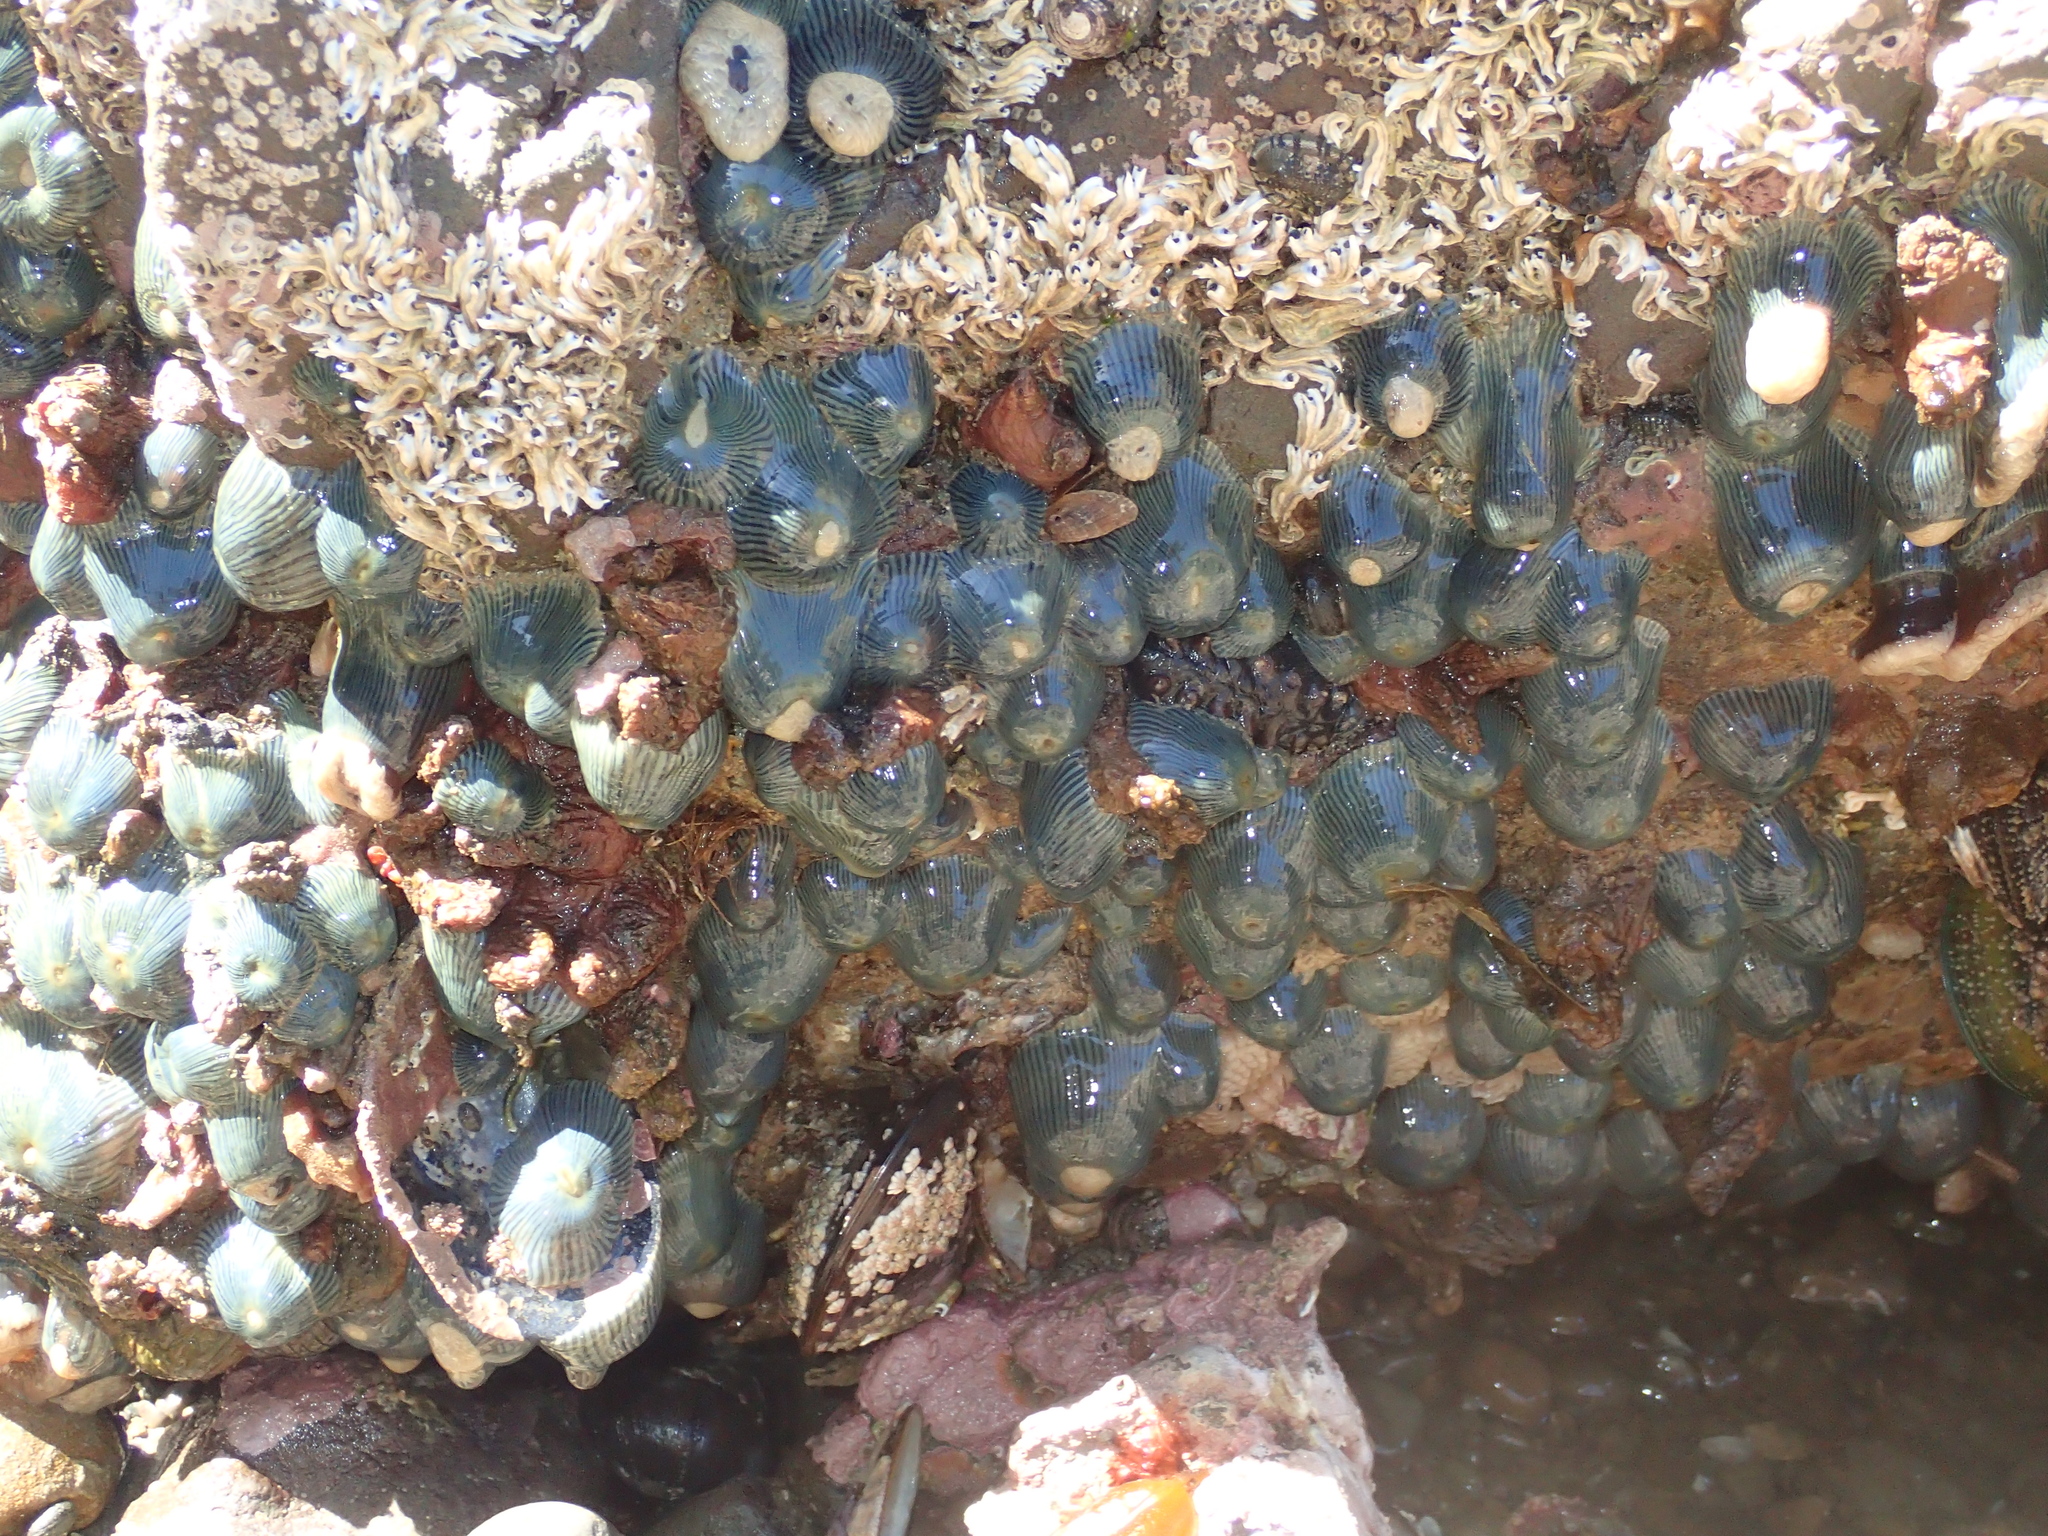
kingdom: Animalia
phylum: Cnidaria
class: Anthozoa
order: Actiniaria
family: Diadumenidae
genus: Diadumene
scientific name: Diadumene neozelanica
